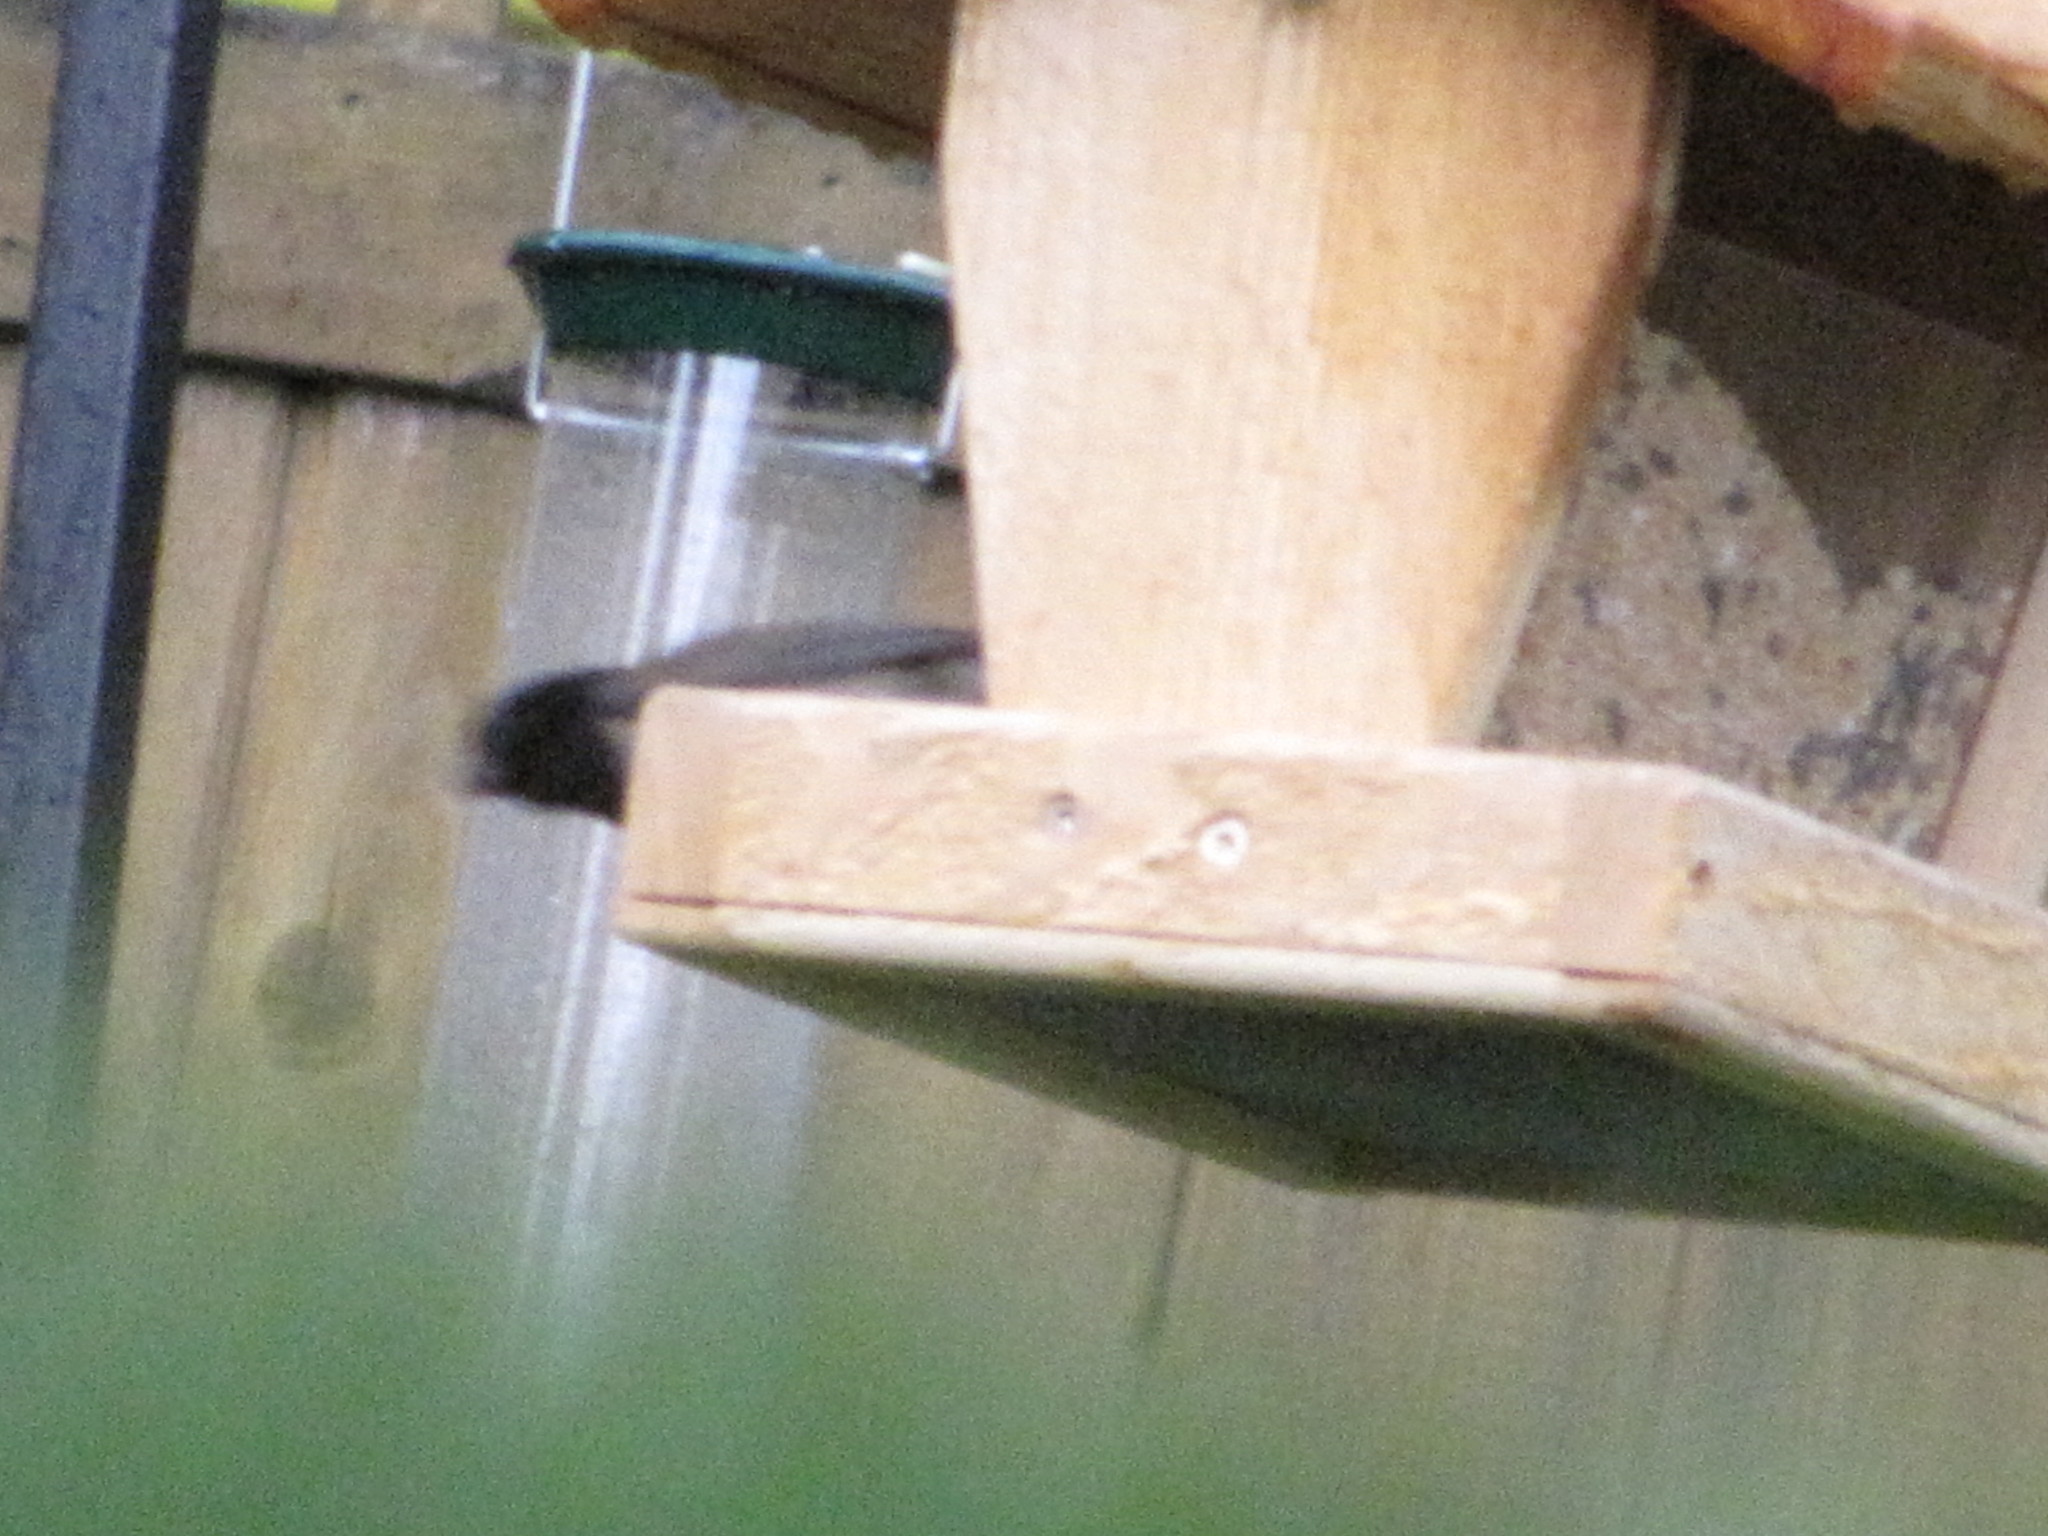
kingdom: Animalia
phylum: Chordata
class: Aves
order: Passeriformes
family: Passerellidae
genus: Junco
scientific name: Junco hyemalis
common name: Dark-eyed junco
